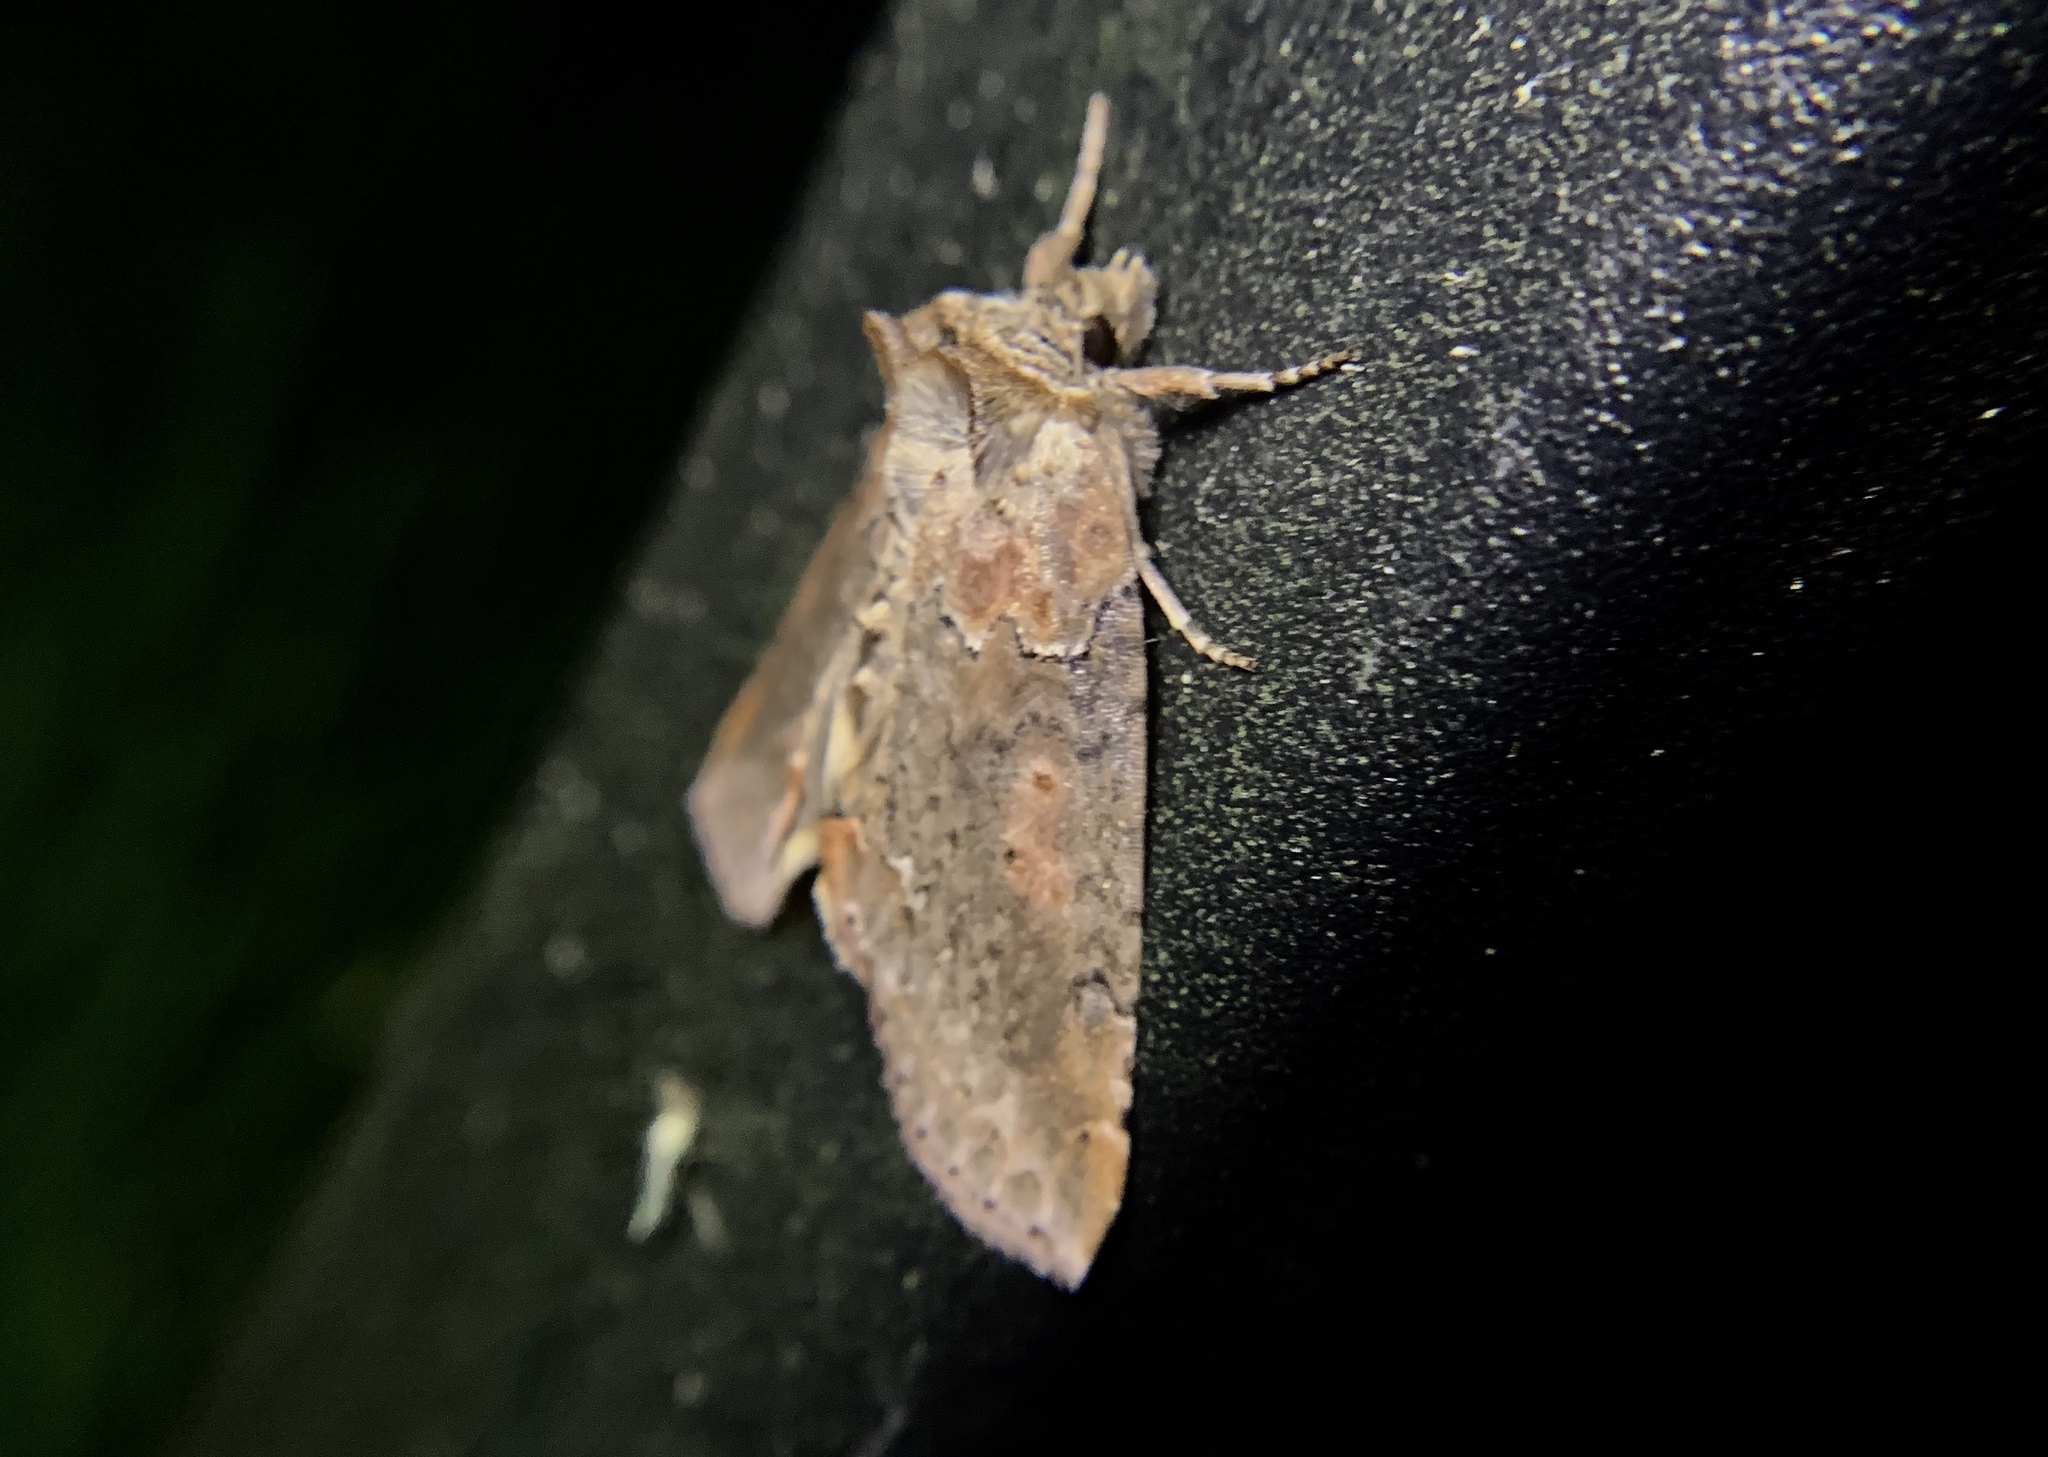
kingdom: Animalia
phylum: Arthropoda
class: Insecta
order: Lepidoptera
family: Drepanidae
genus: Pseudothyatira
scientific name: Pseudothyatira cymatophoroides
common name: Tufted thyatirid moth
